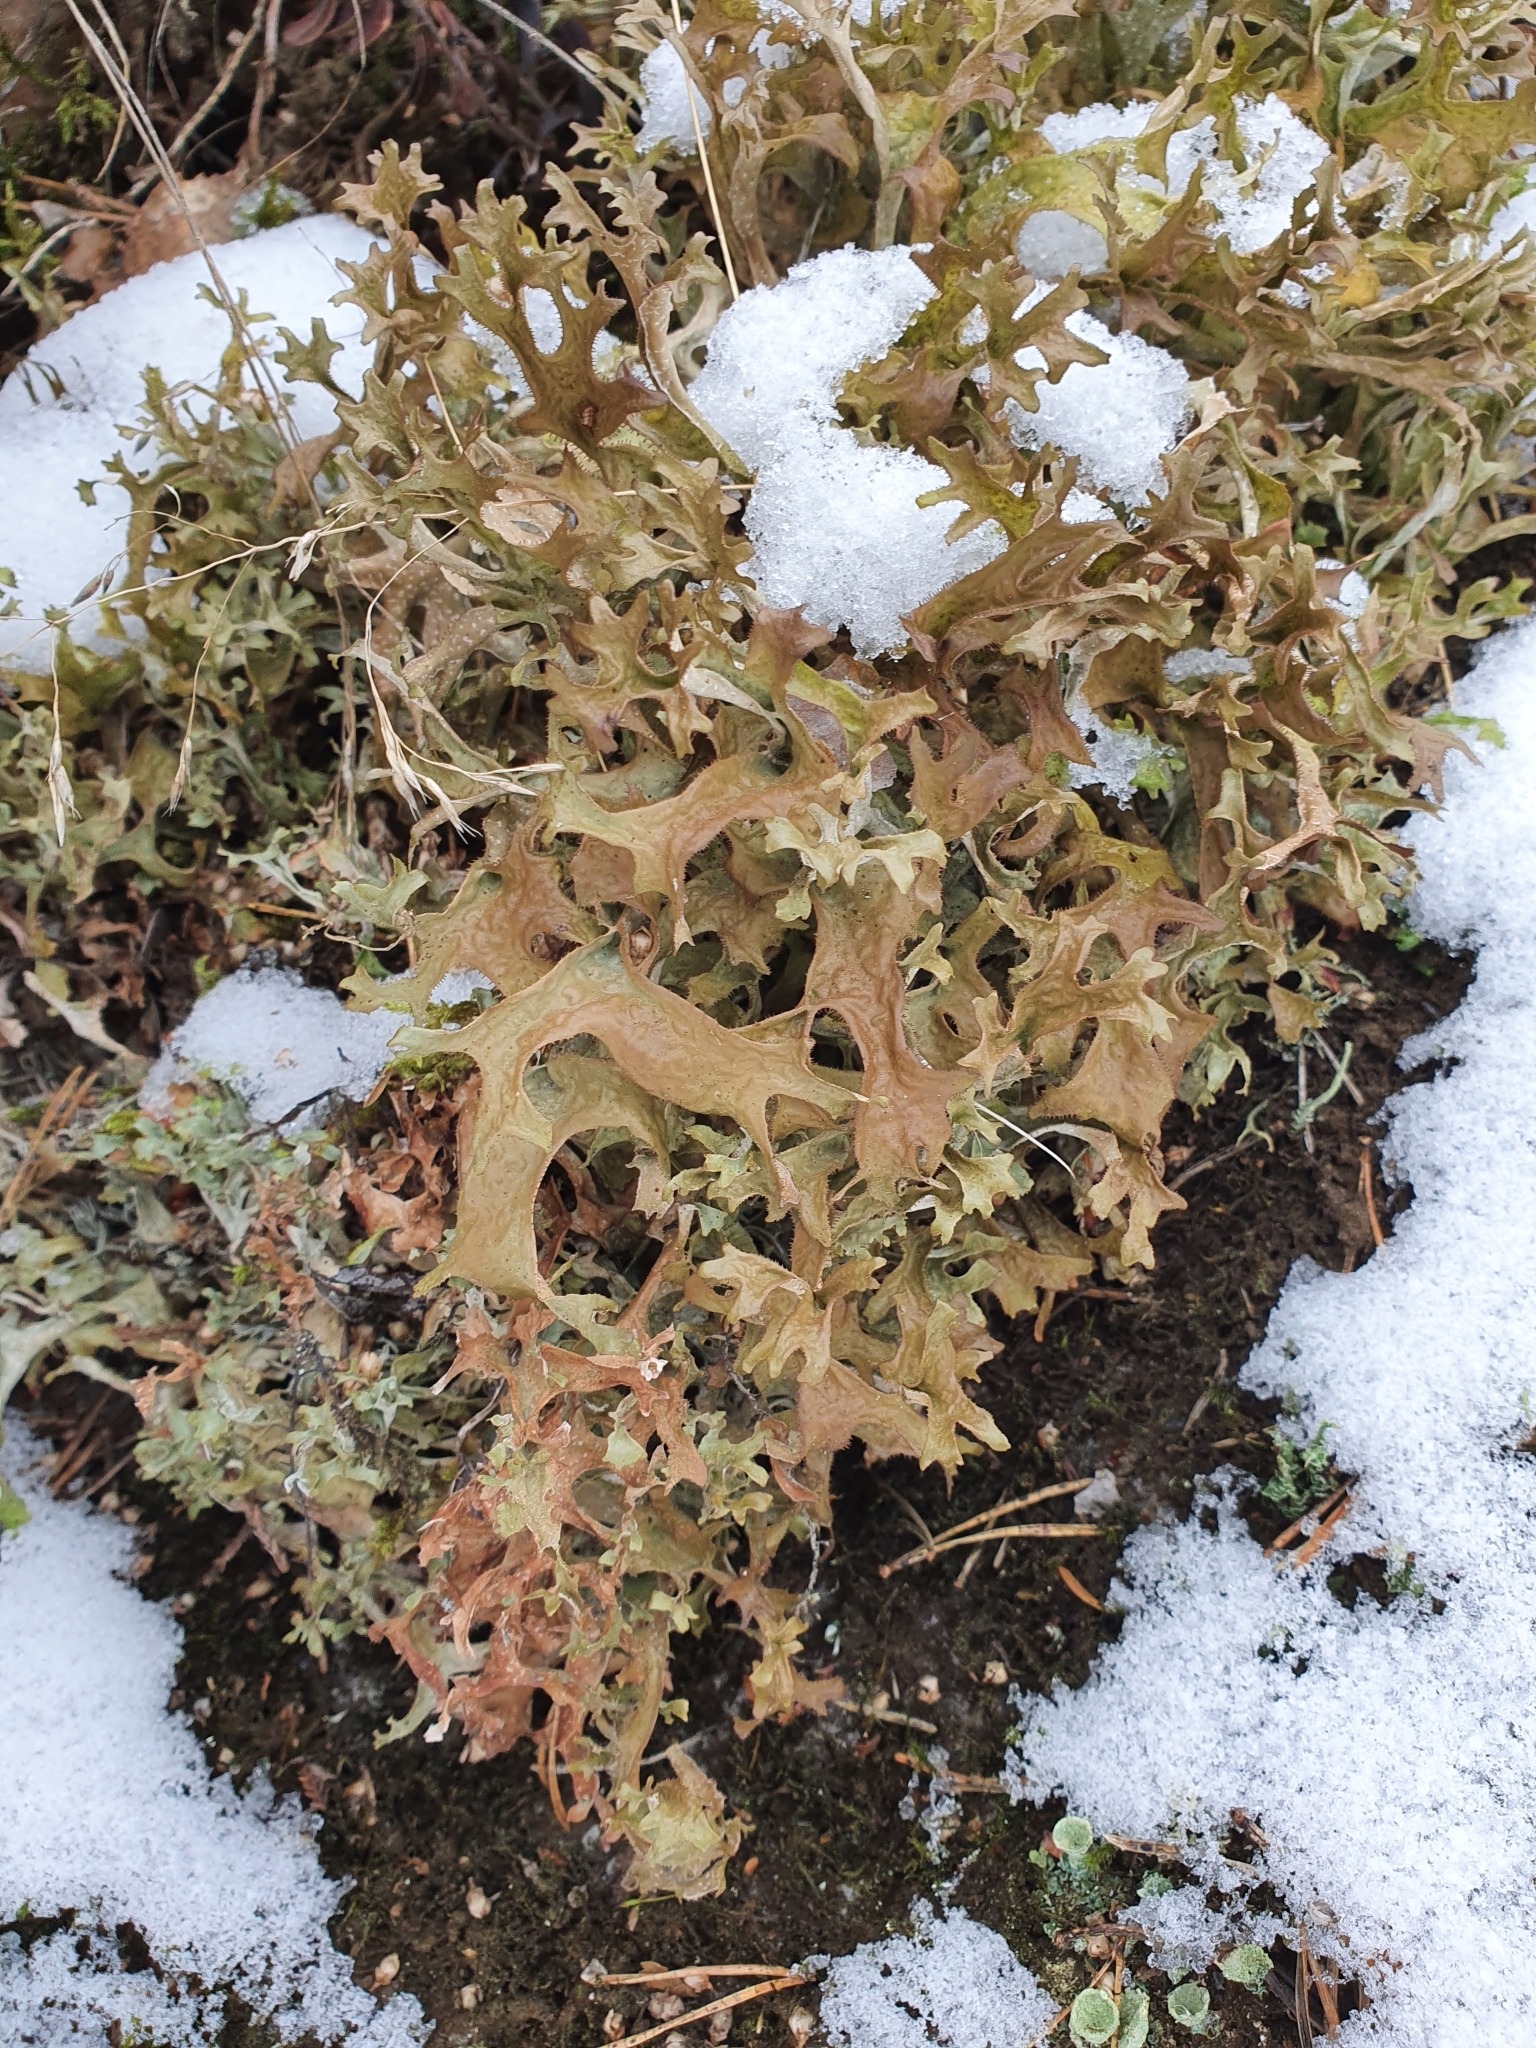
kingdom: Fungi
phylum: Ascomycota
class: Lecanoromycetes
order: Lecanorales
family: Parmeliaceae
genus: Cetraria
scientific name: Cetraria islandica
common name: Iceland lichen
